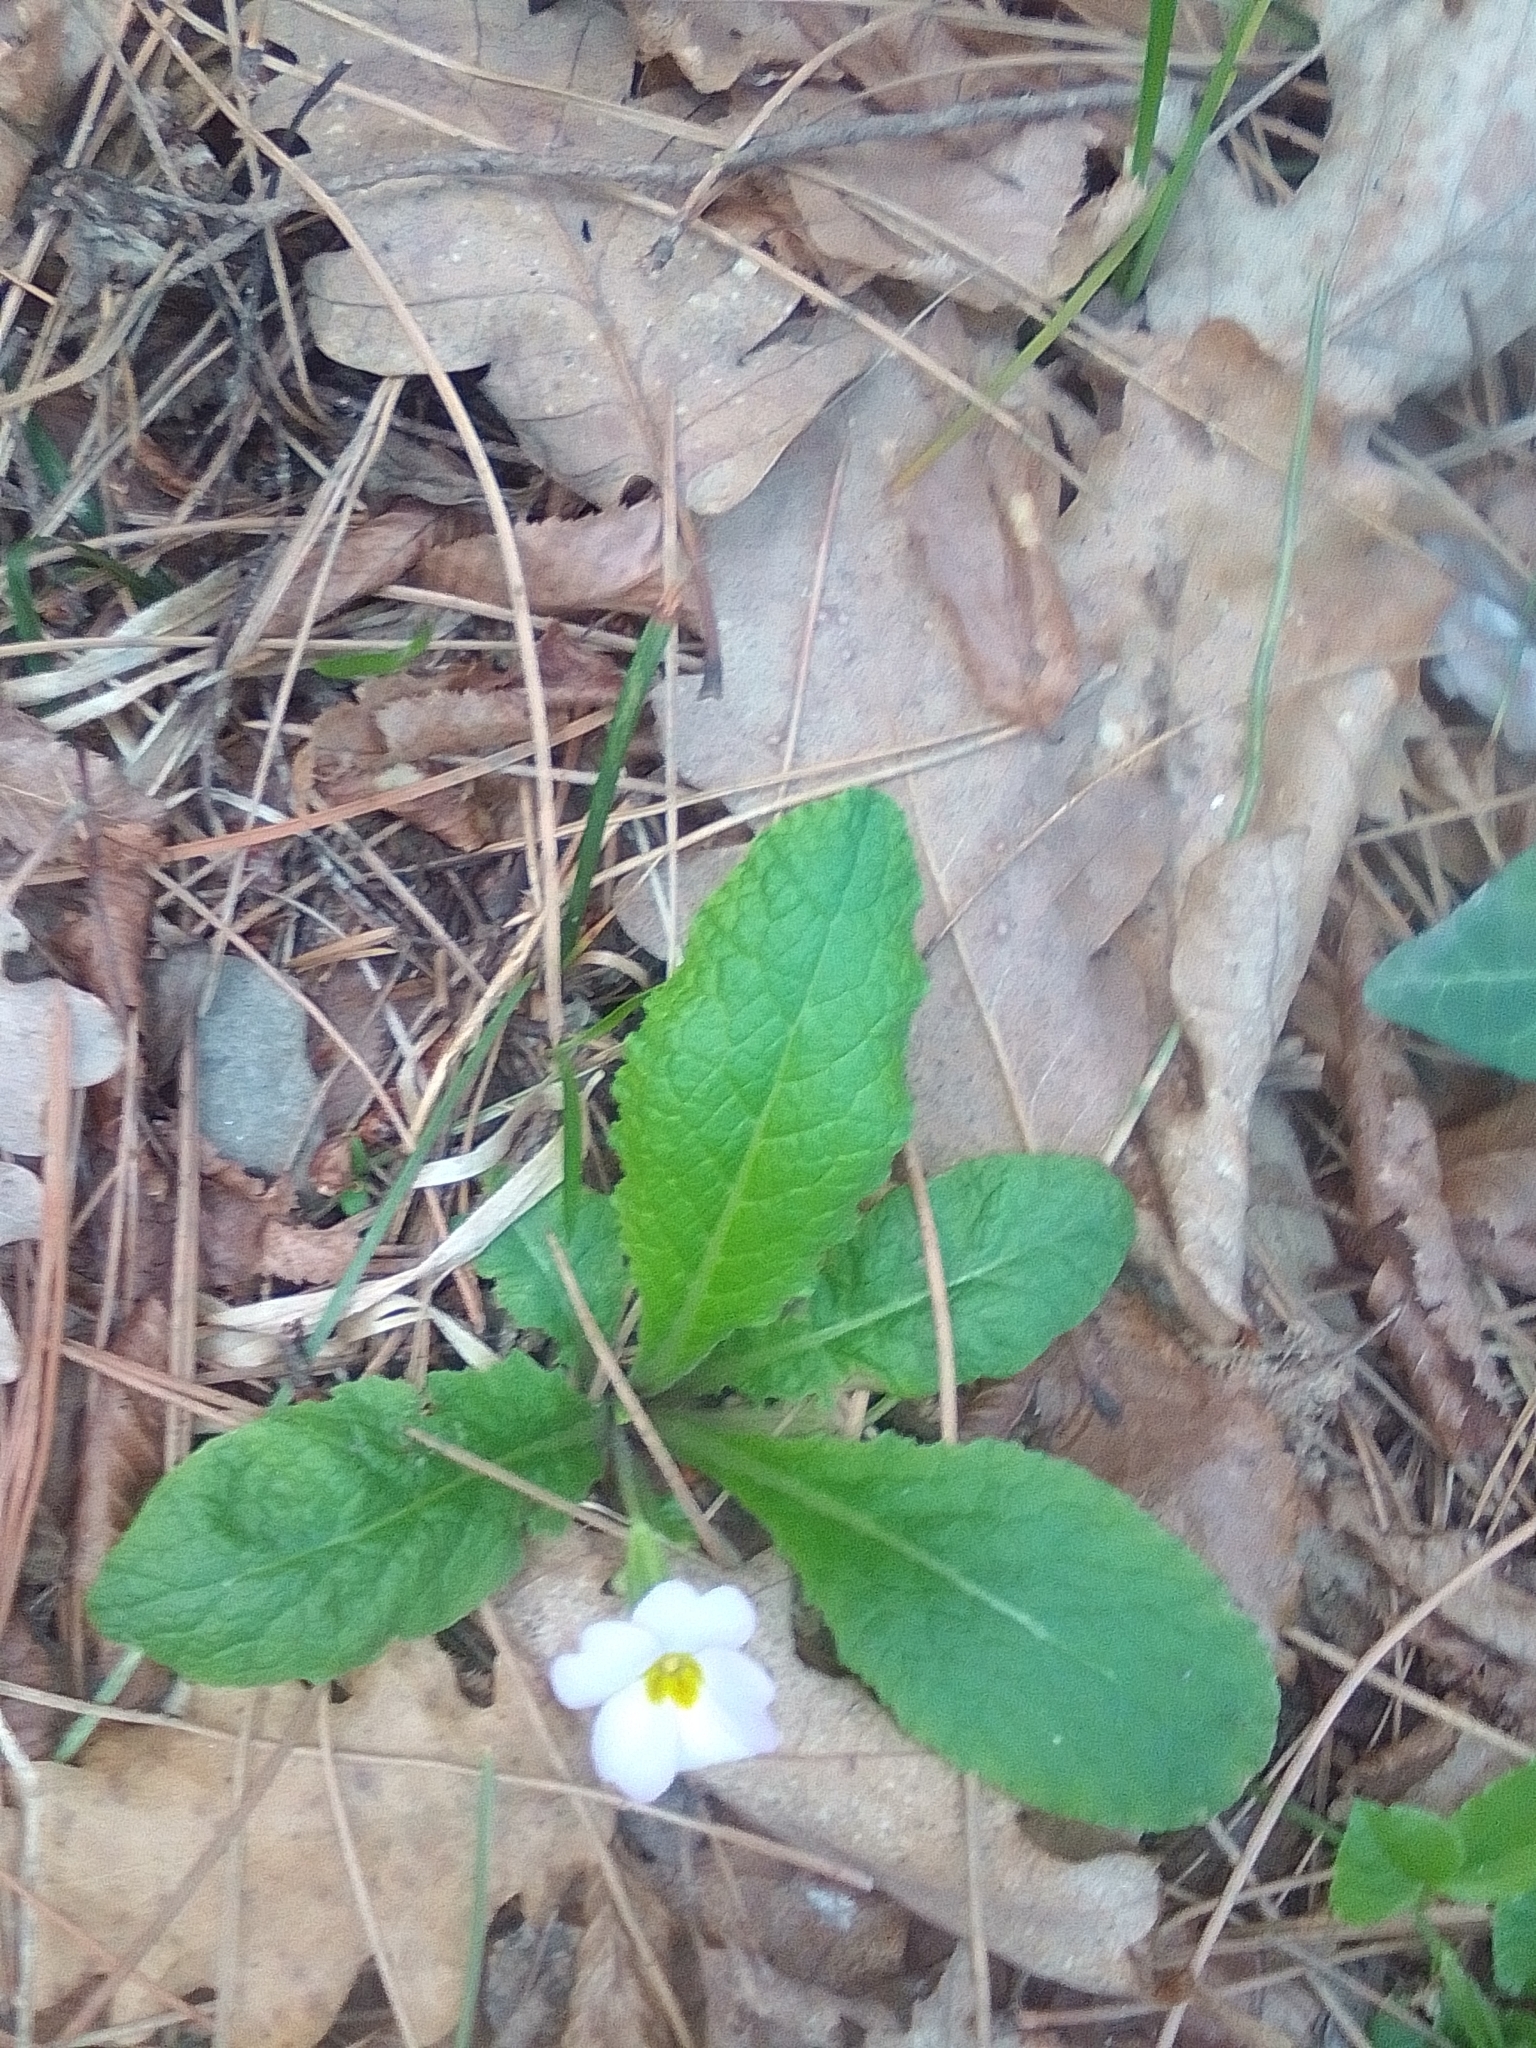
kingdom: Plantae
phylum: Tracheophyta
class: Magnoliopsida
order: Ericales
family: Primulaceae
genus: Primula
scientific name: Primula vulgaris
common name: Primrose
